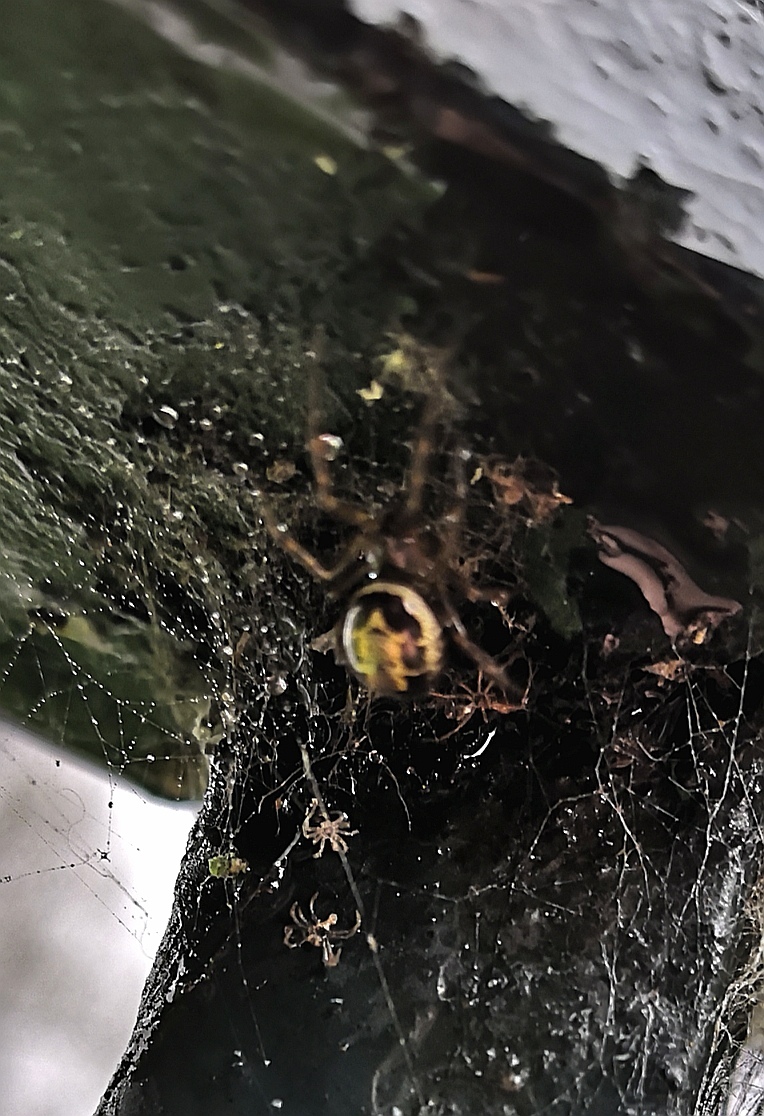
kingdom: Animalia
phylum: Arthropoda
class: Arachnida
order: Araneae
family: Theridiidae
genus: Steatoda
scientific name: Steatoda nobilis
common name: Cobweb weaver
